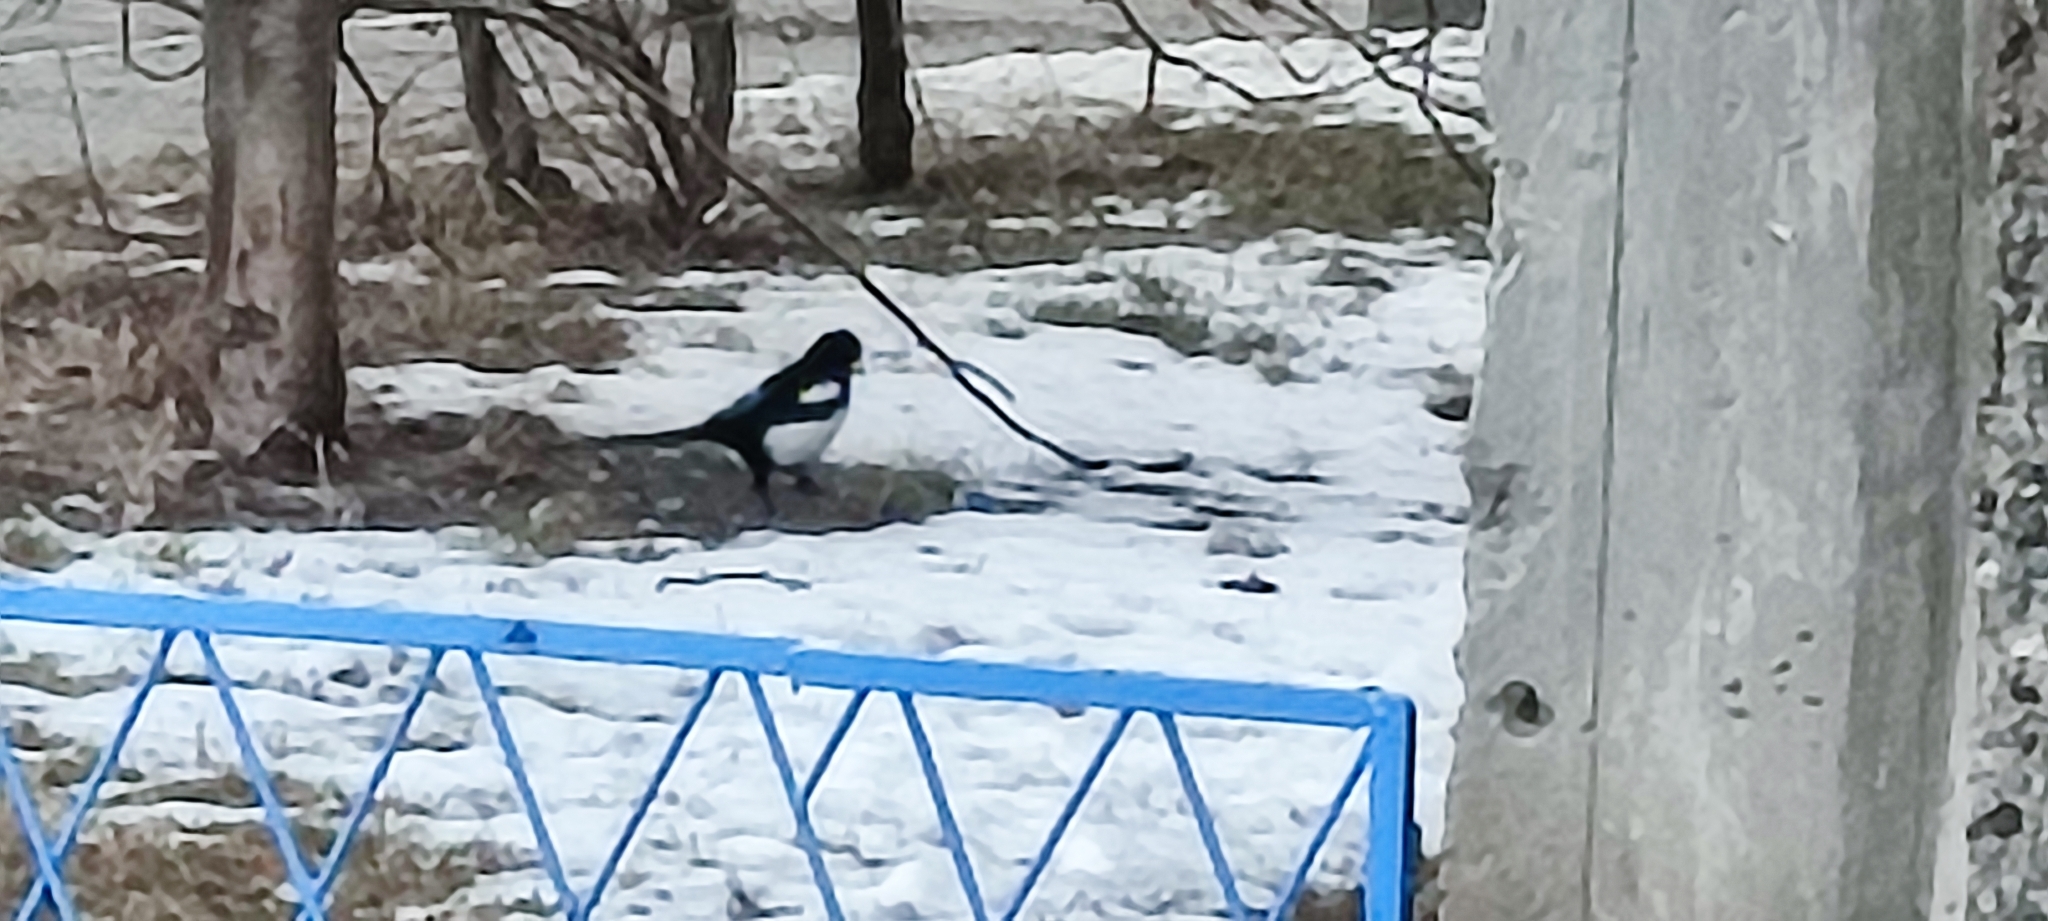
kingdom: Animalia
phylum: Chordata
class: Aves
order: Passeriformes
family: Corvidae
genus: Pica
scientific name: Pica pica
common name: Eurasian magpie
